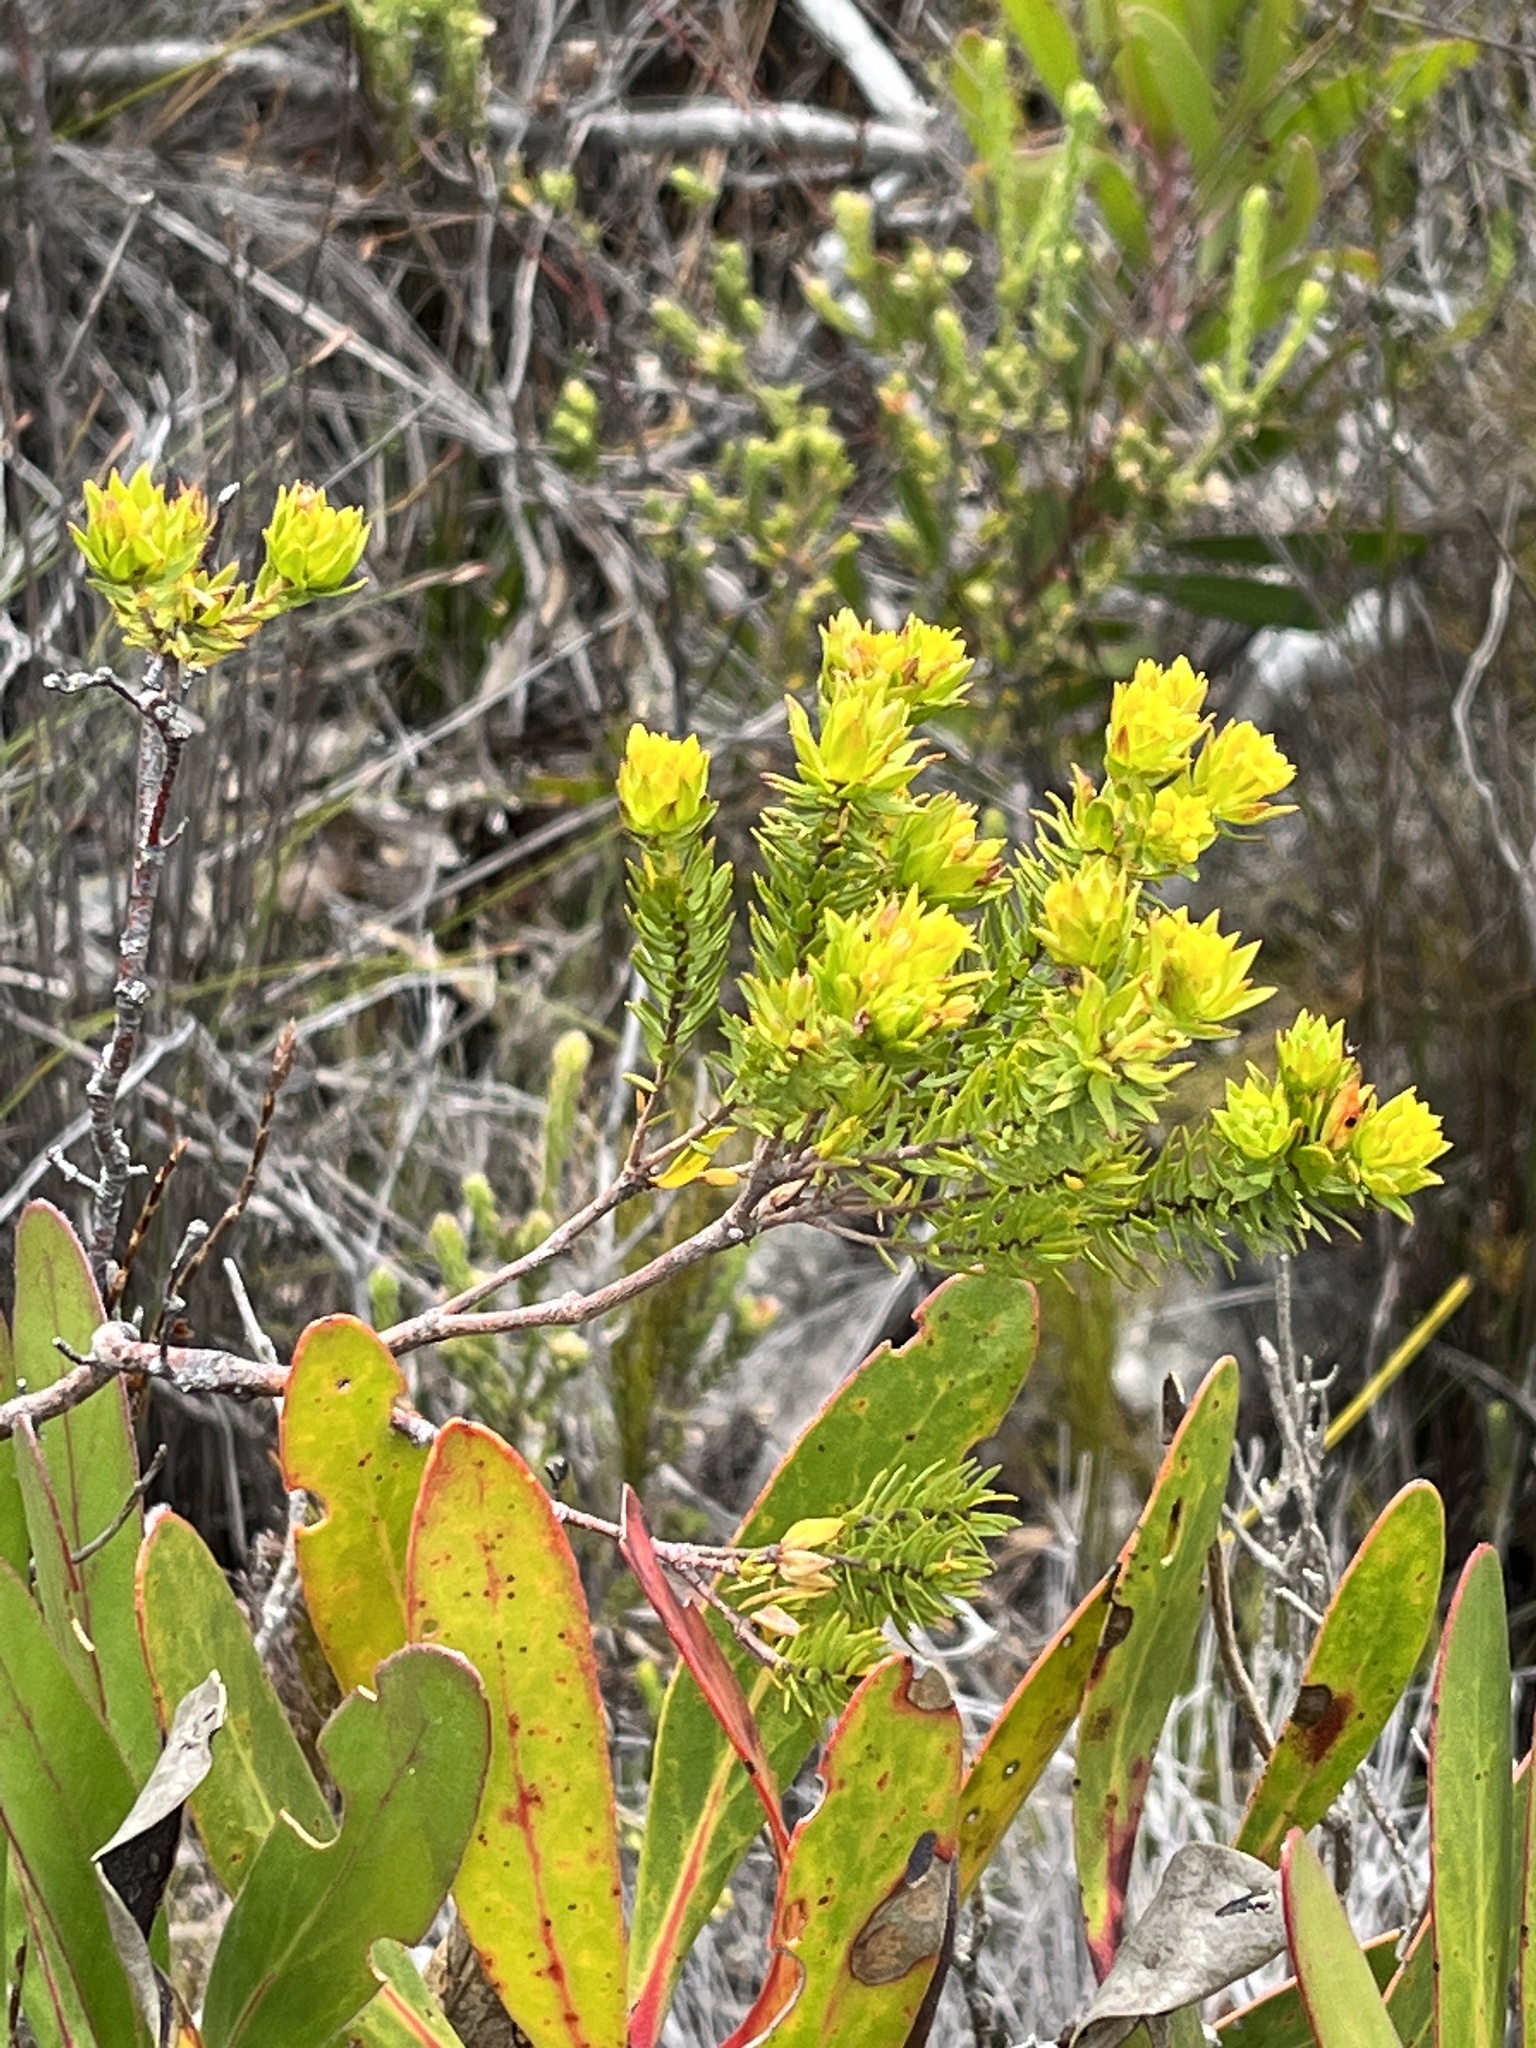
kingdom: Plantae
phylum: Tracheophyta
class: Magnoliopsida
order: Malvales
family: Thymelaeaceae
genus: Gnidia
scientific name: Gnidia juniperifolia
